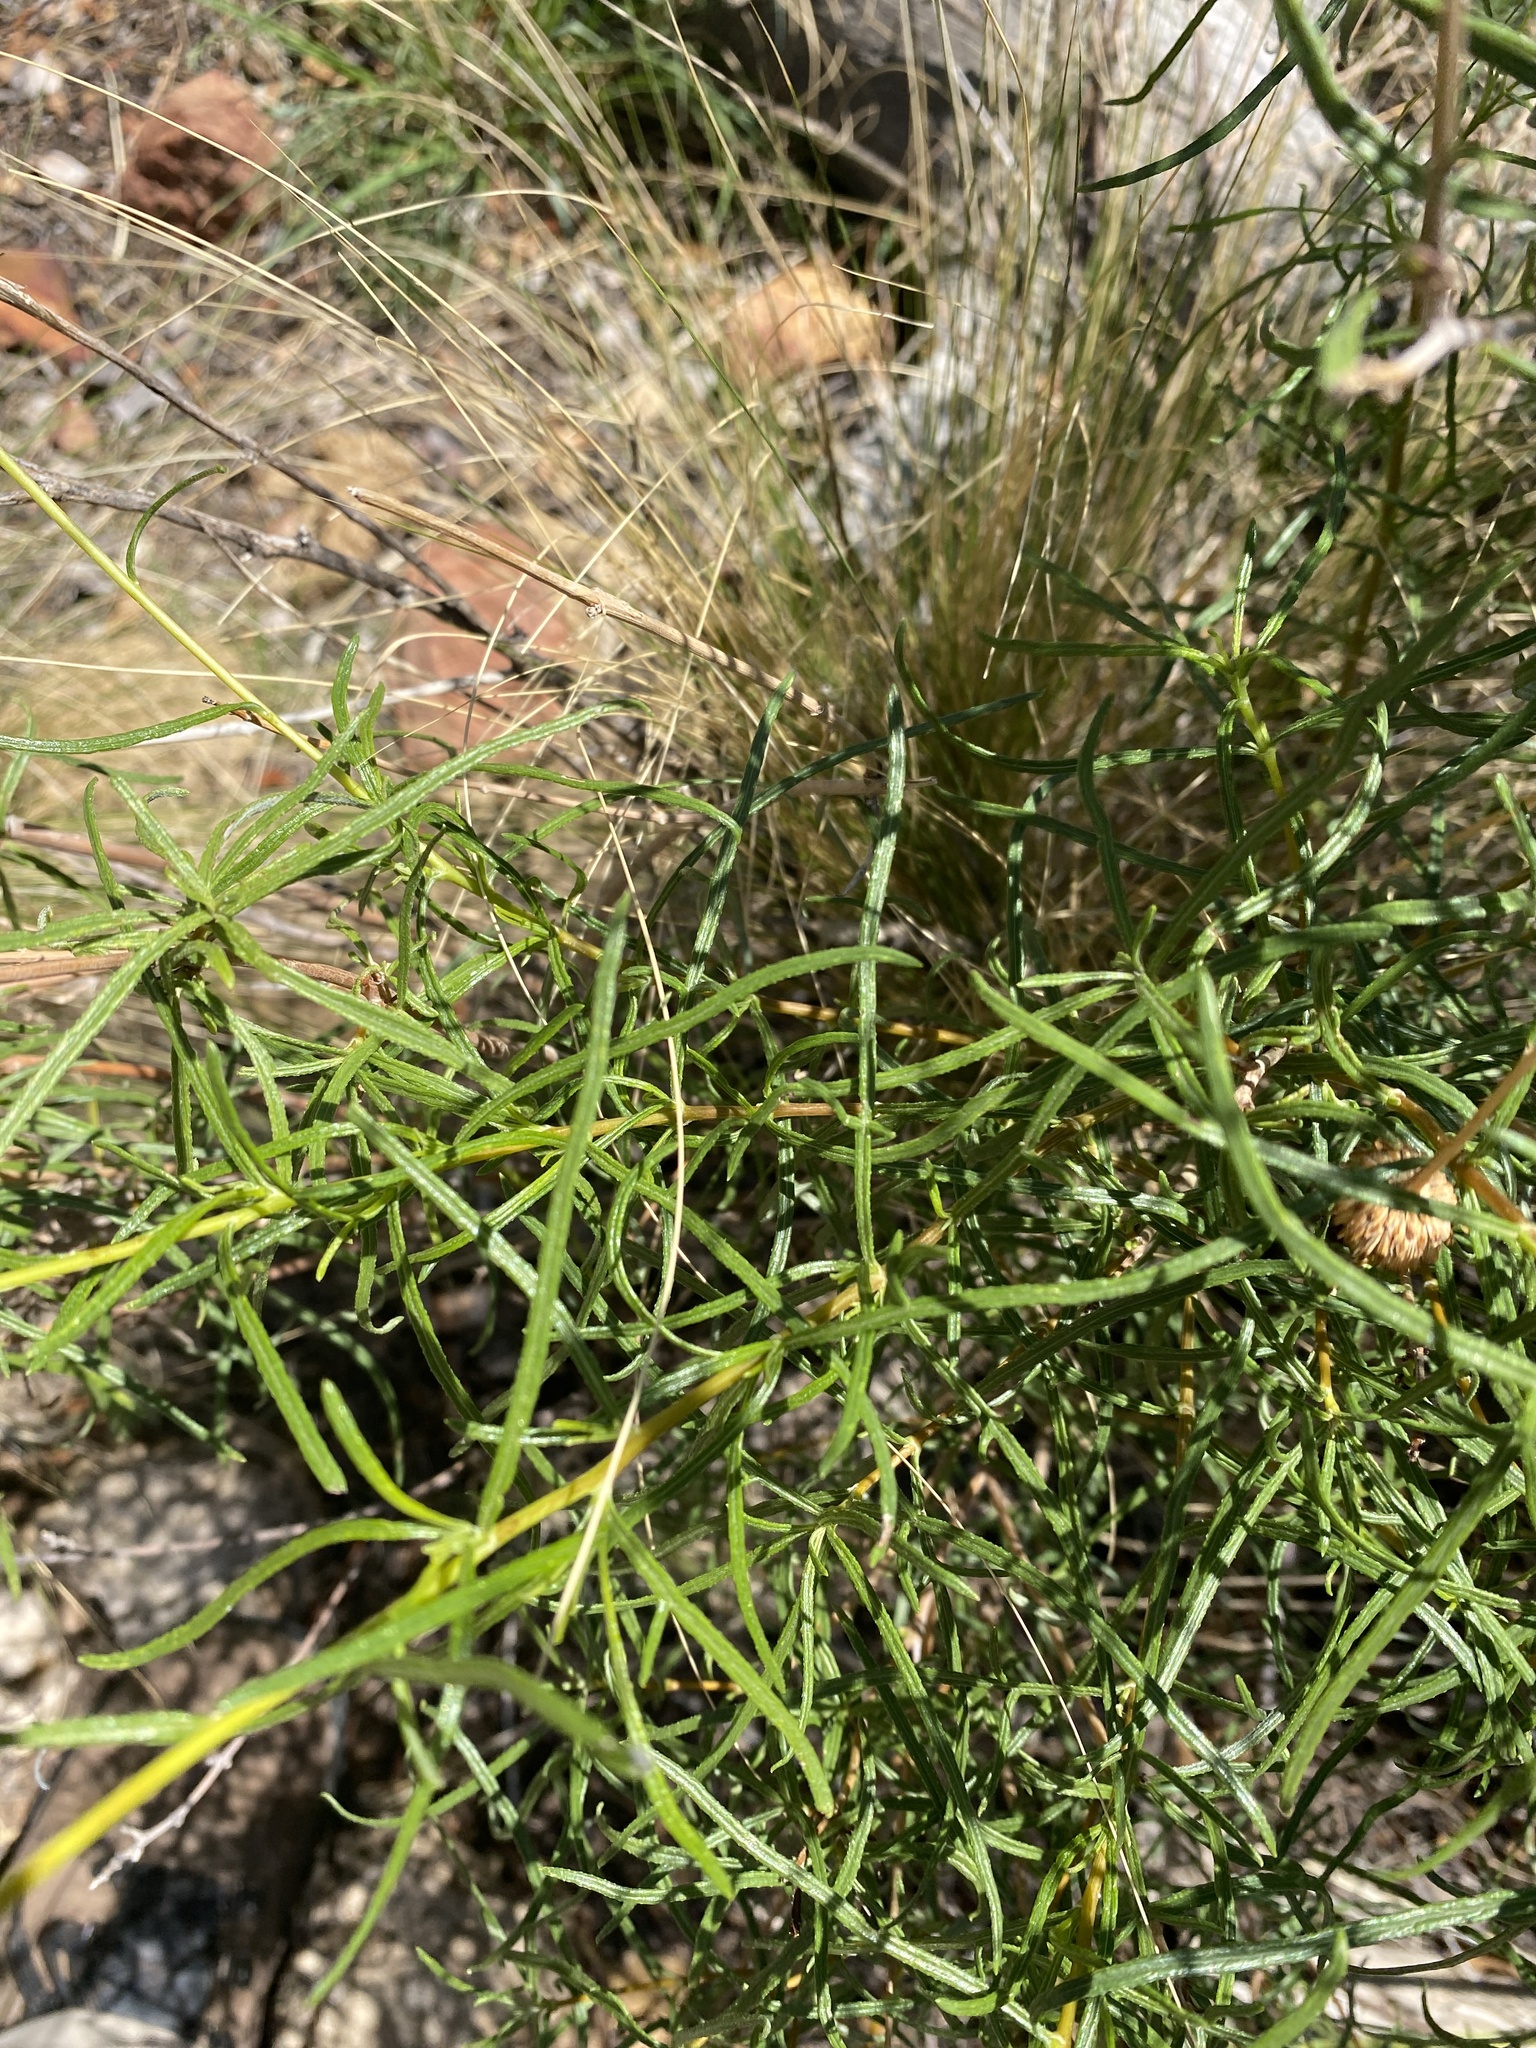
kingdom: Plantae
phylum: Tracheophyta
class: Magnoliopsida
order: Asterales
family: Asteraceae
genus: Sidneya
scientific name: Sidneya tenuifolia
